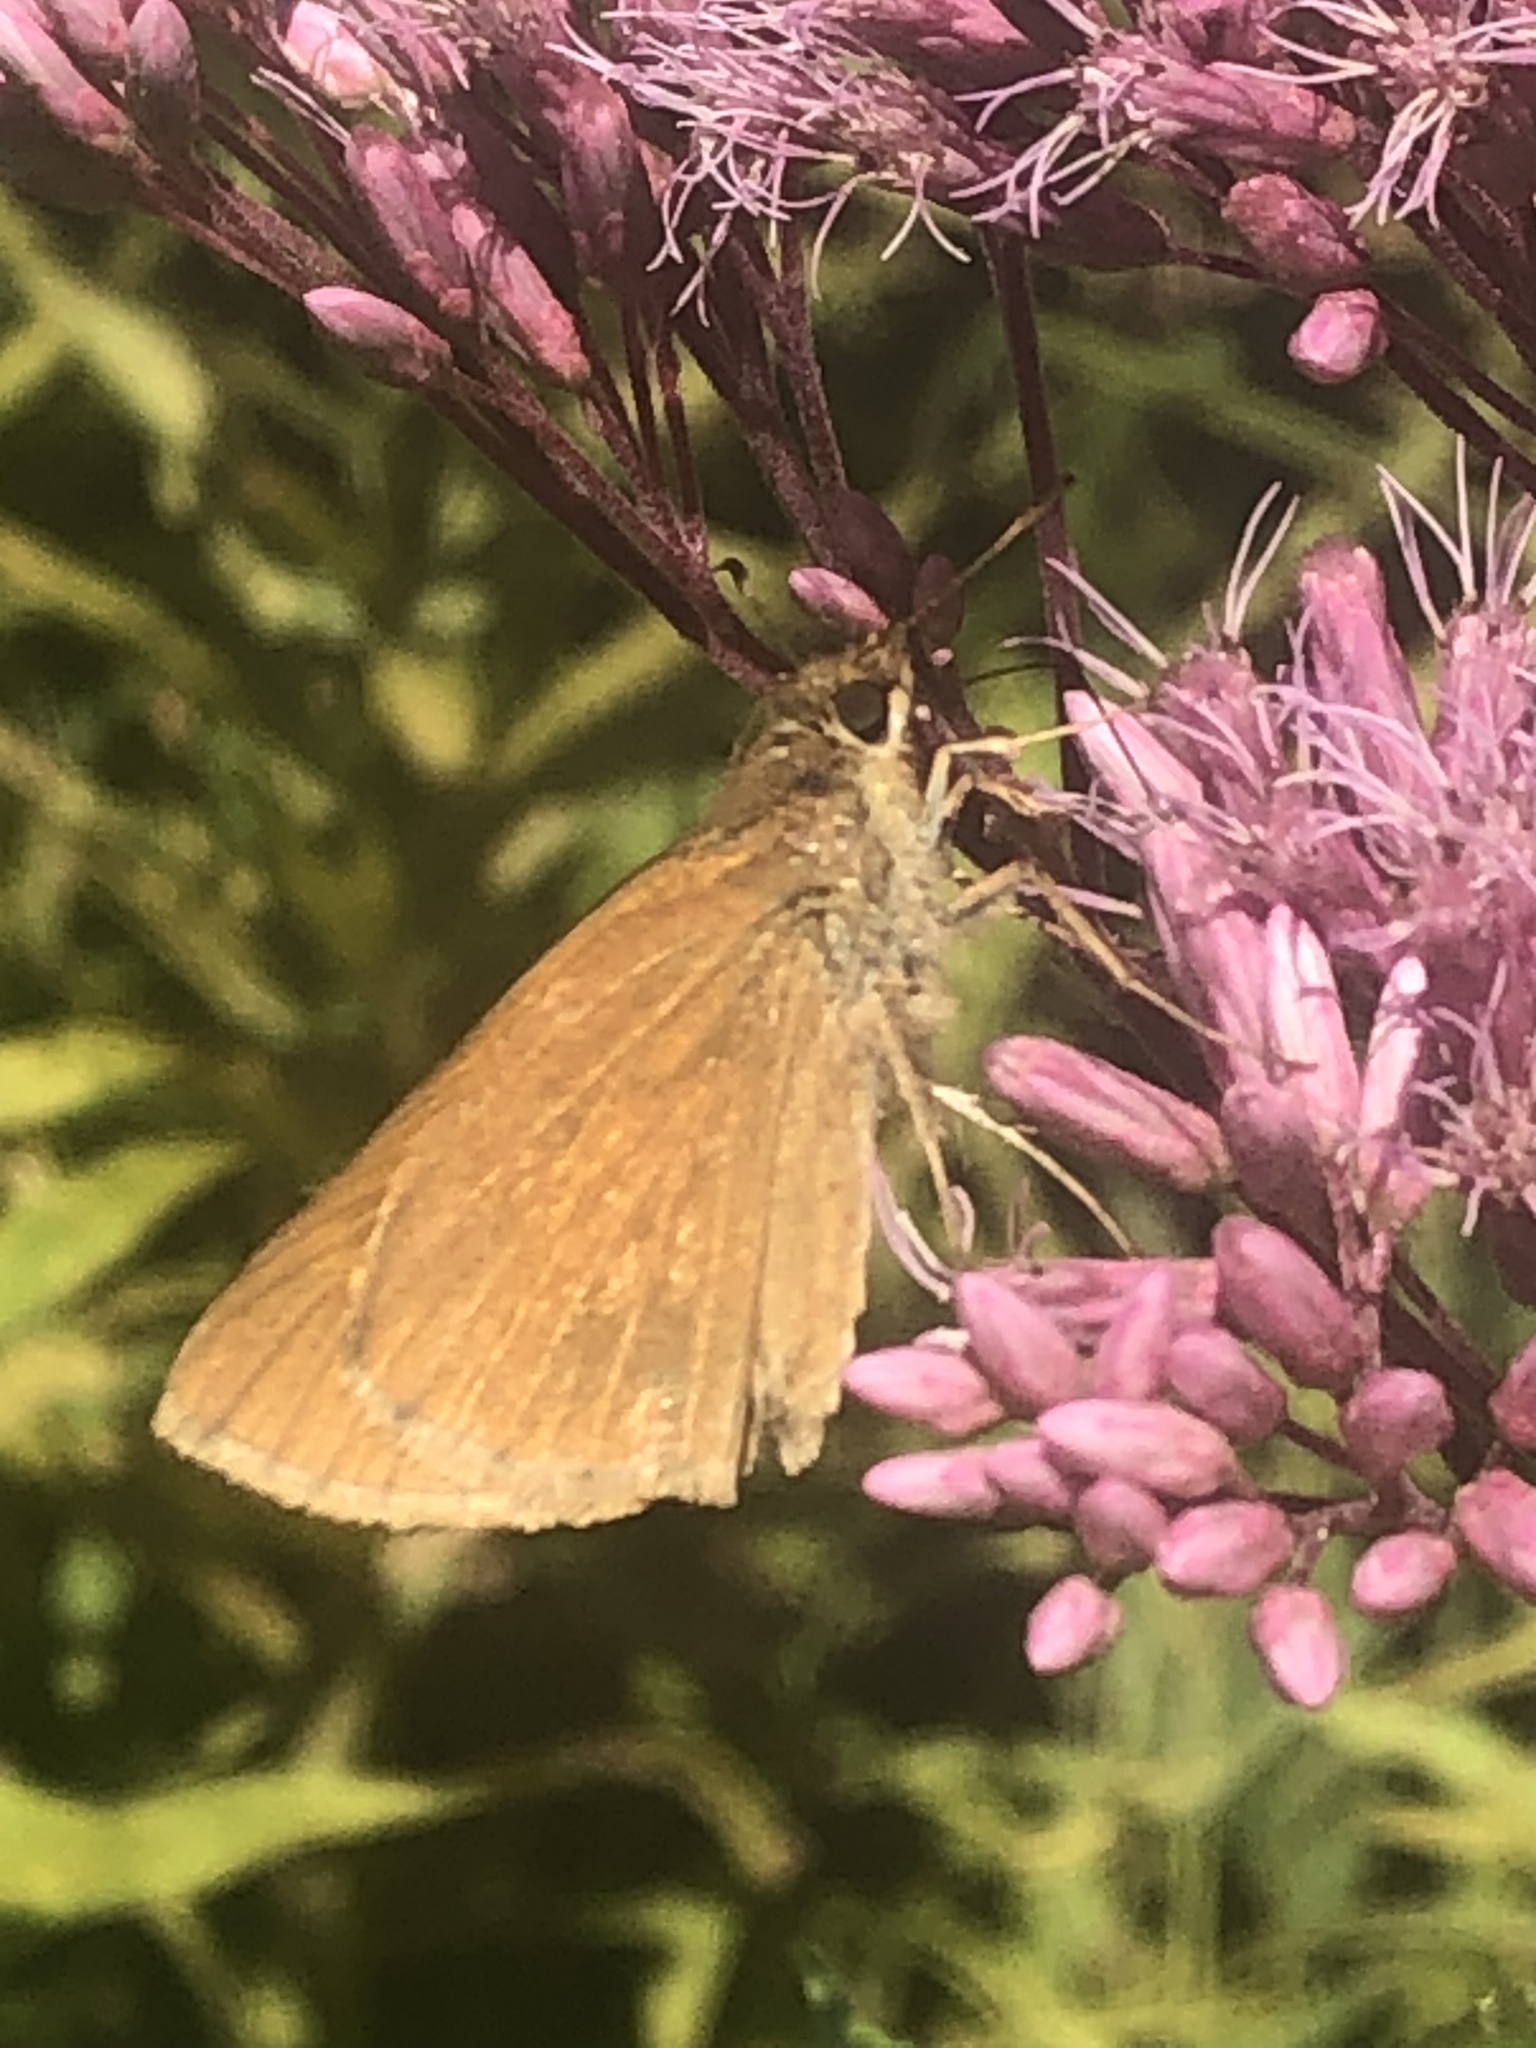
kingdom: Animalia
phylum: Arthropoda
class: Insecta
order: Lepidoptera
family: Hesperiidae
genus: Poanes
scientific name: Poanes viator
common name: Broad-winged skipper
